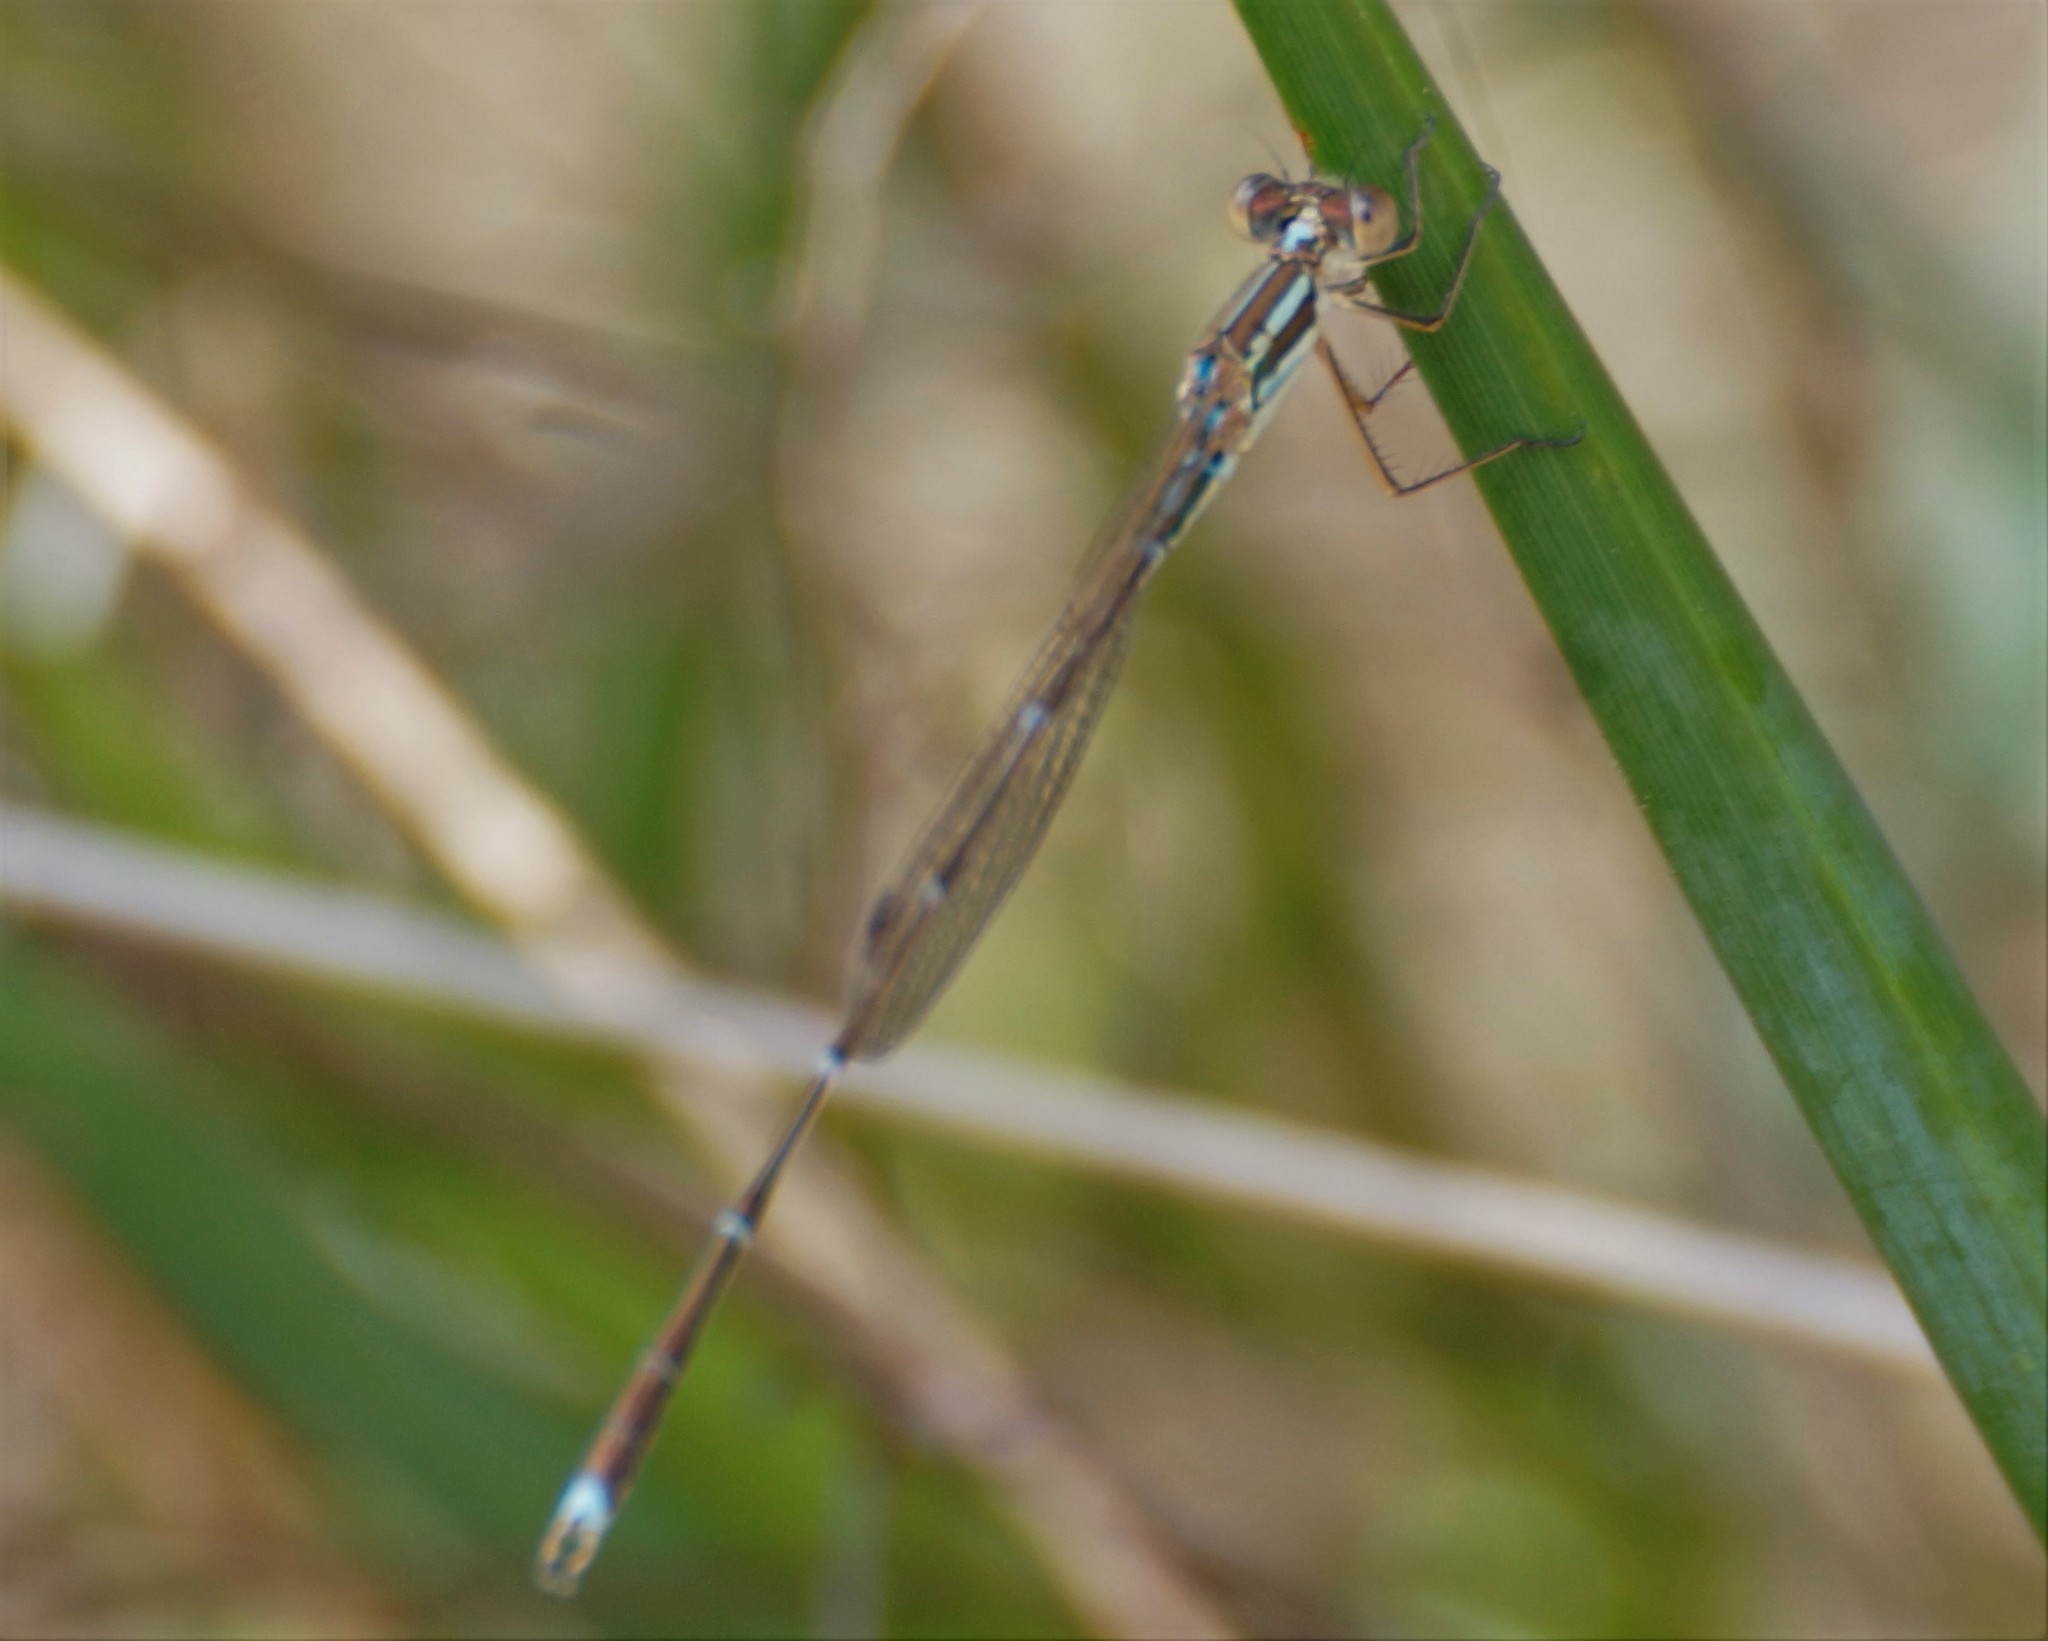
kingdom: Animalia
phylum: Arthropoda
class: Insecta
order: Odonata
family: Lestidae
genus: Austrolestes
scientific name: Austrolestes analis
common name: Slender ringtail
